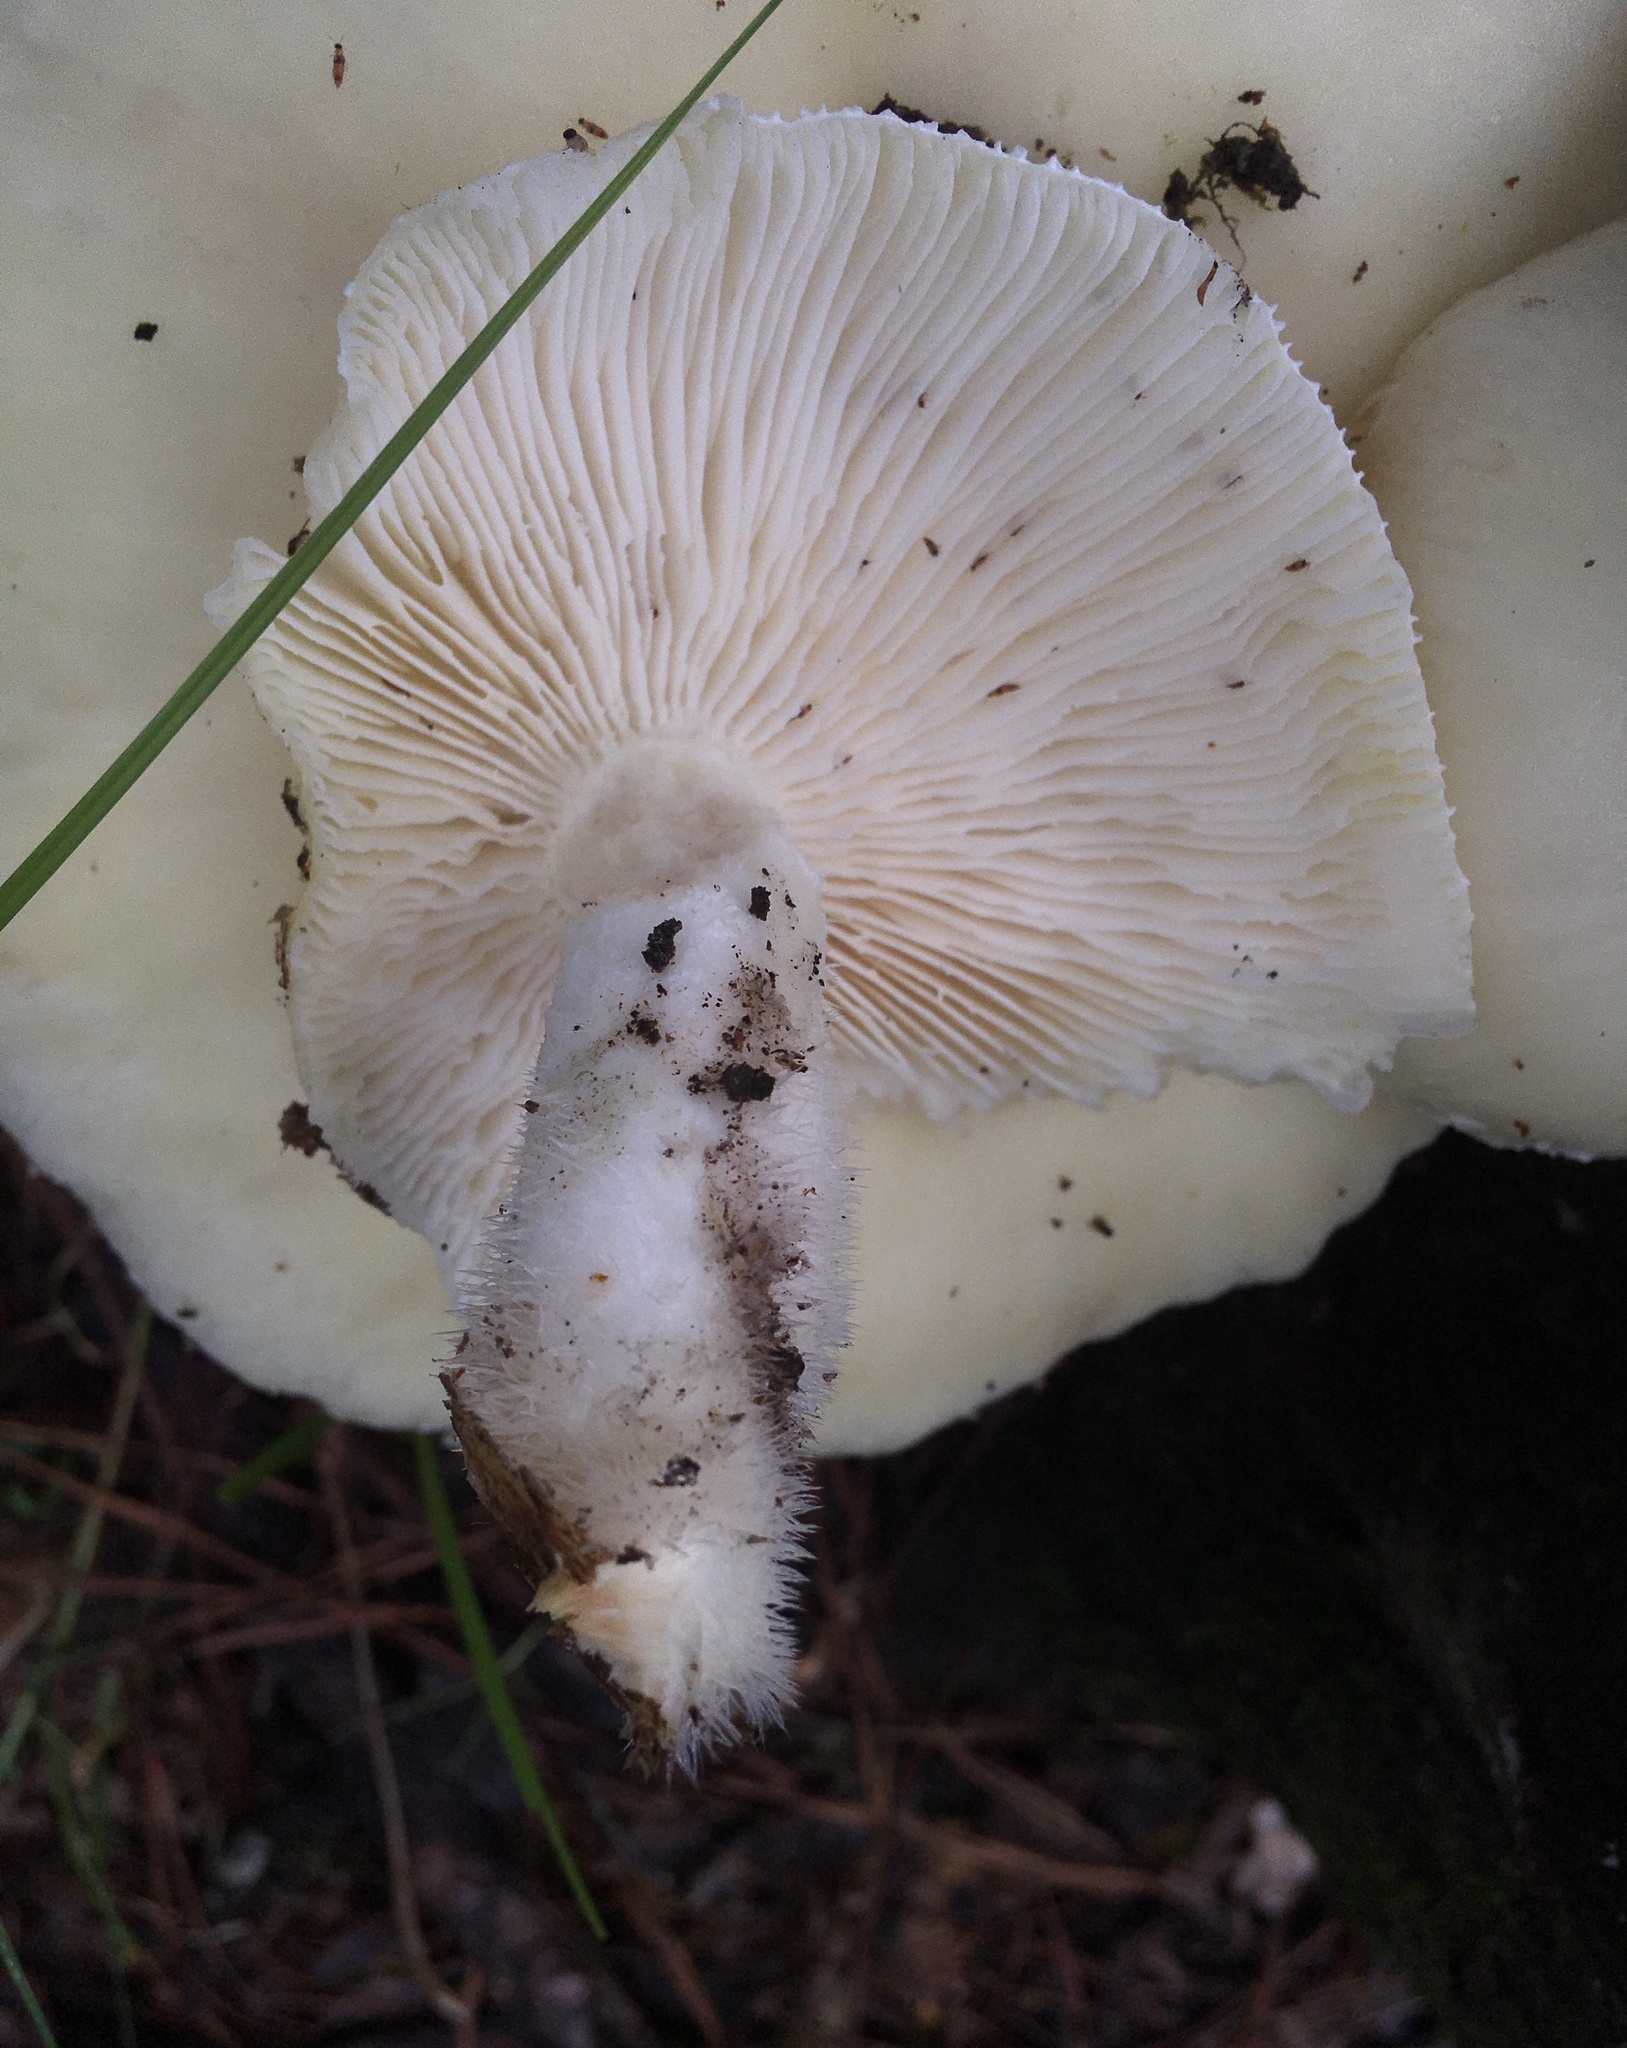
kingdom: Fungi
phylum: Basidiomycota
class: Agaricomycetes
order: Polyporales
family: Polyporaceae
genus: Lentinus
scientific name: Lentinus levis
